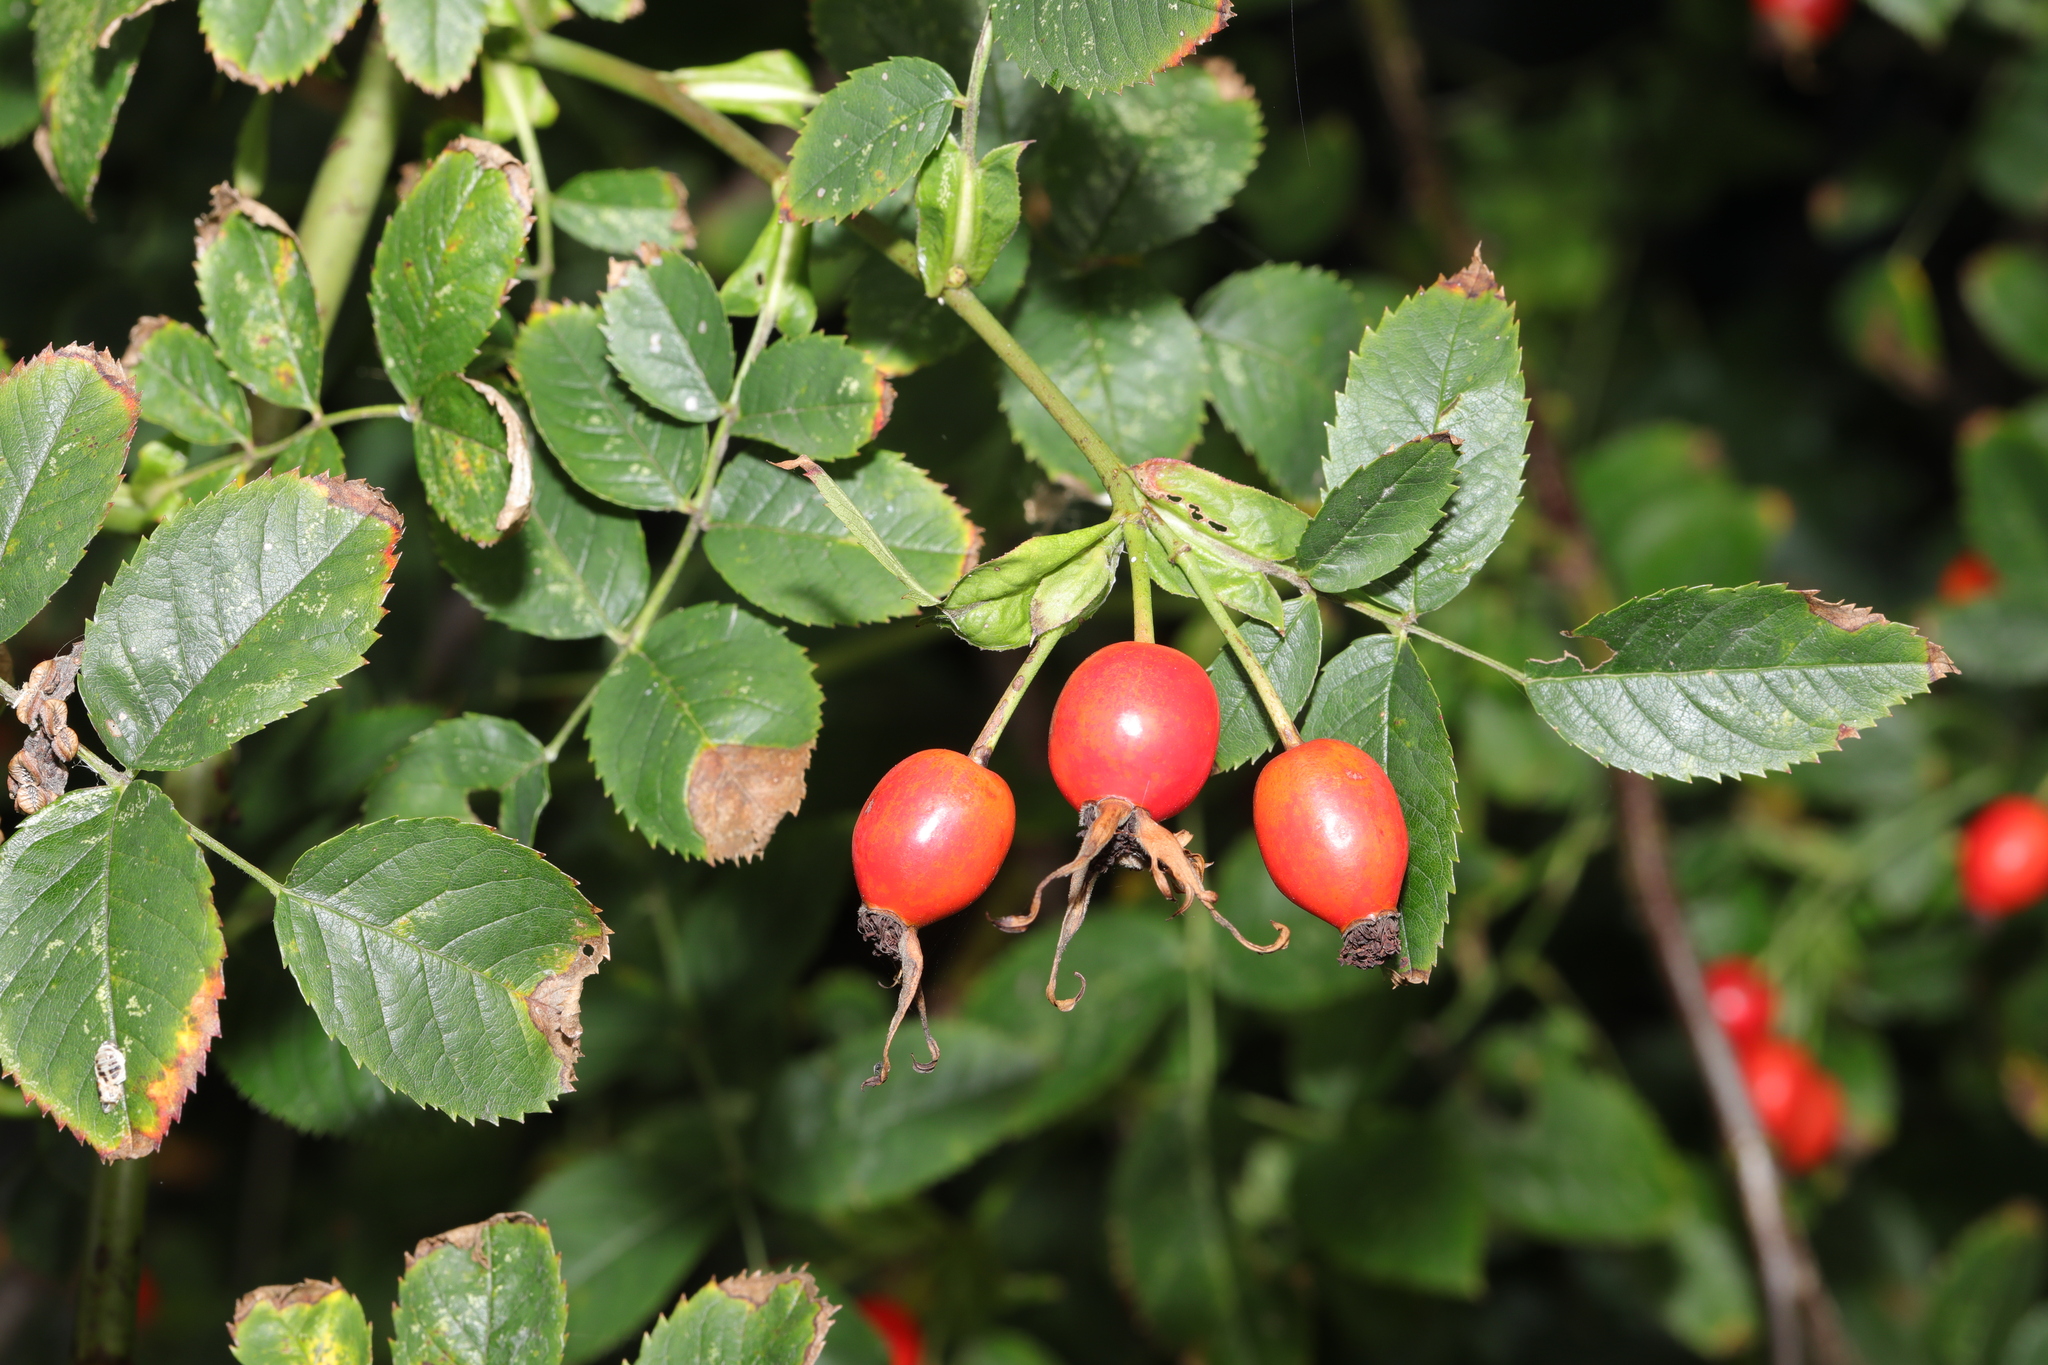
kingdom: Plantae
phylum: Tracheophyta
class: Magnoliopsida
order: Rosales
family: Rosaceae
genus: Rosa
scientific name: Rosa canina
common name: Dog rose
